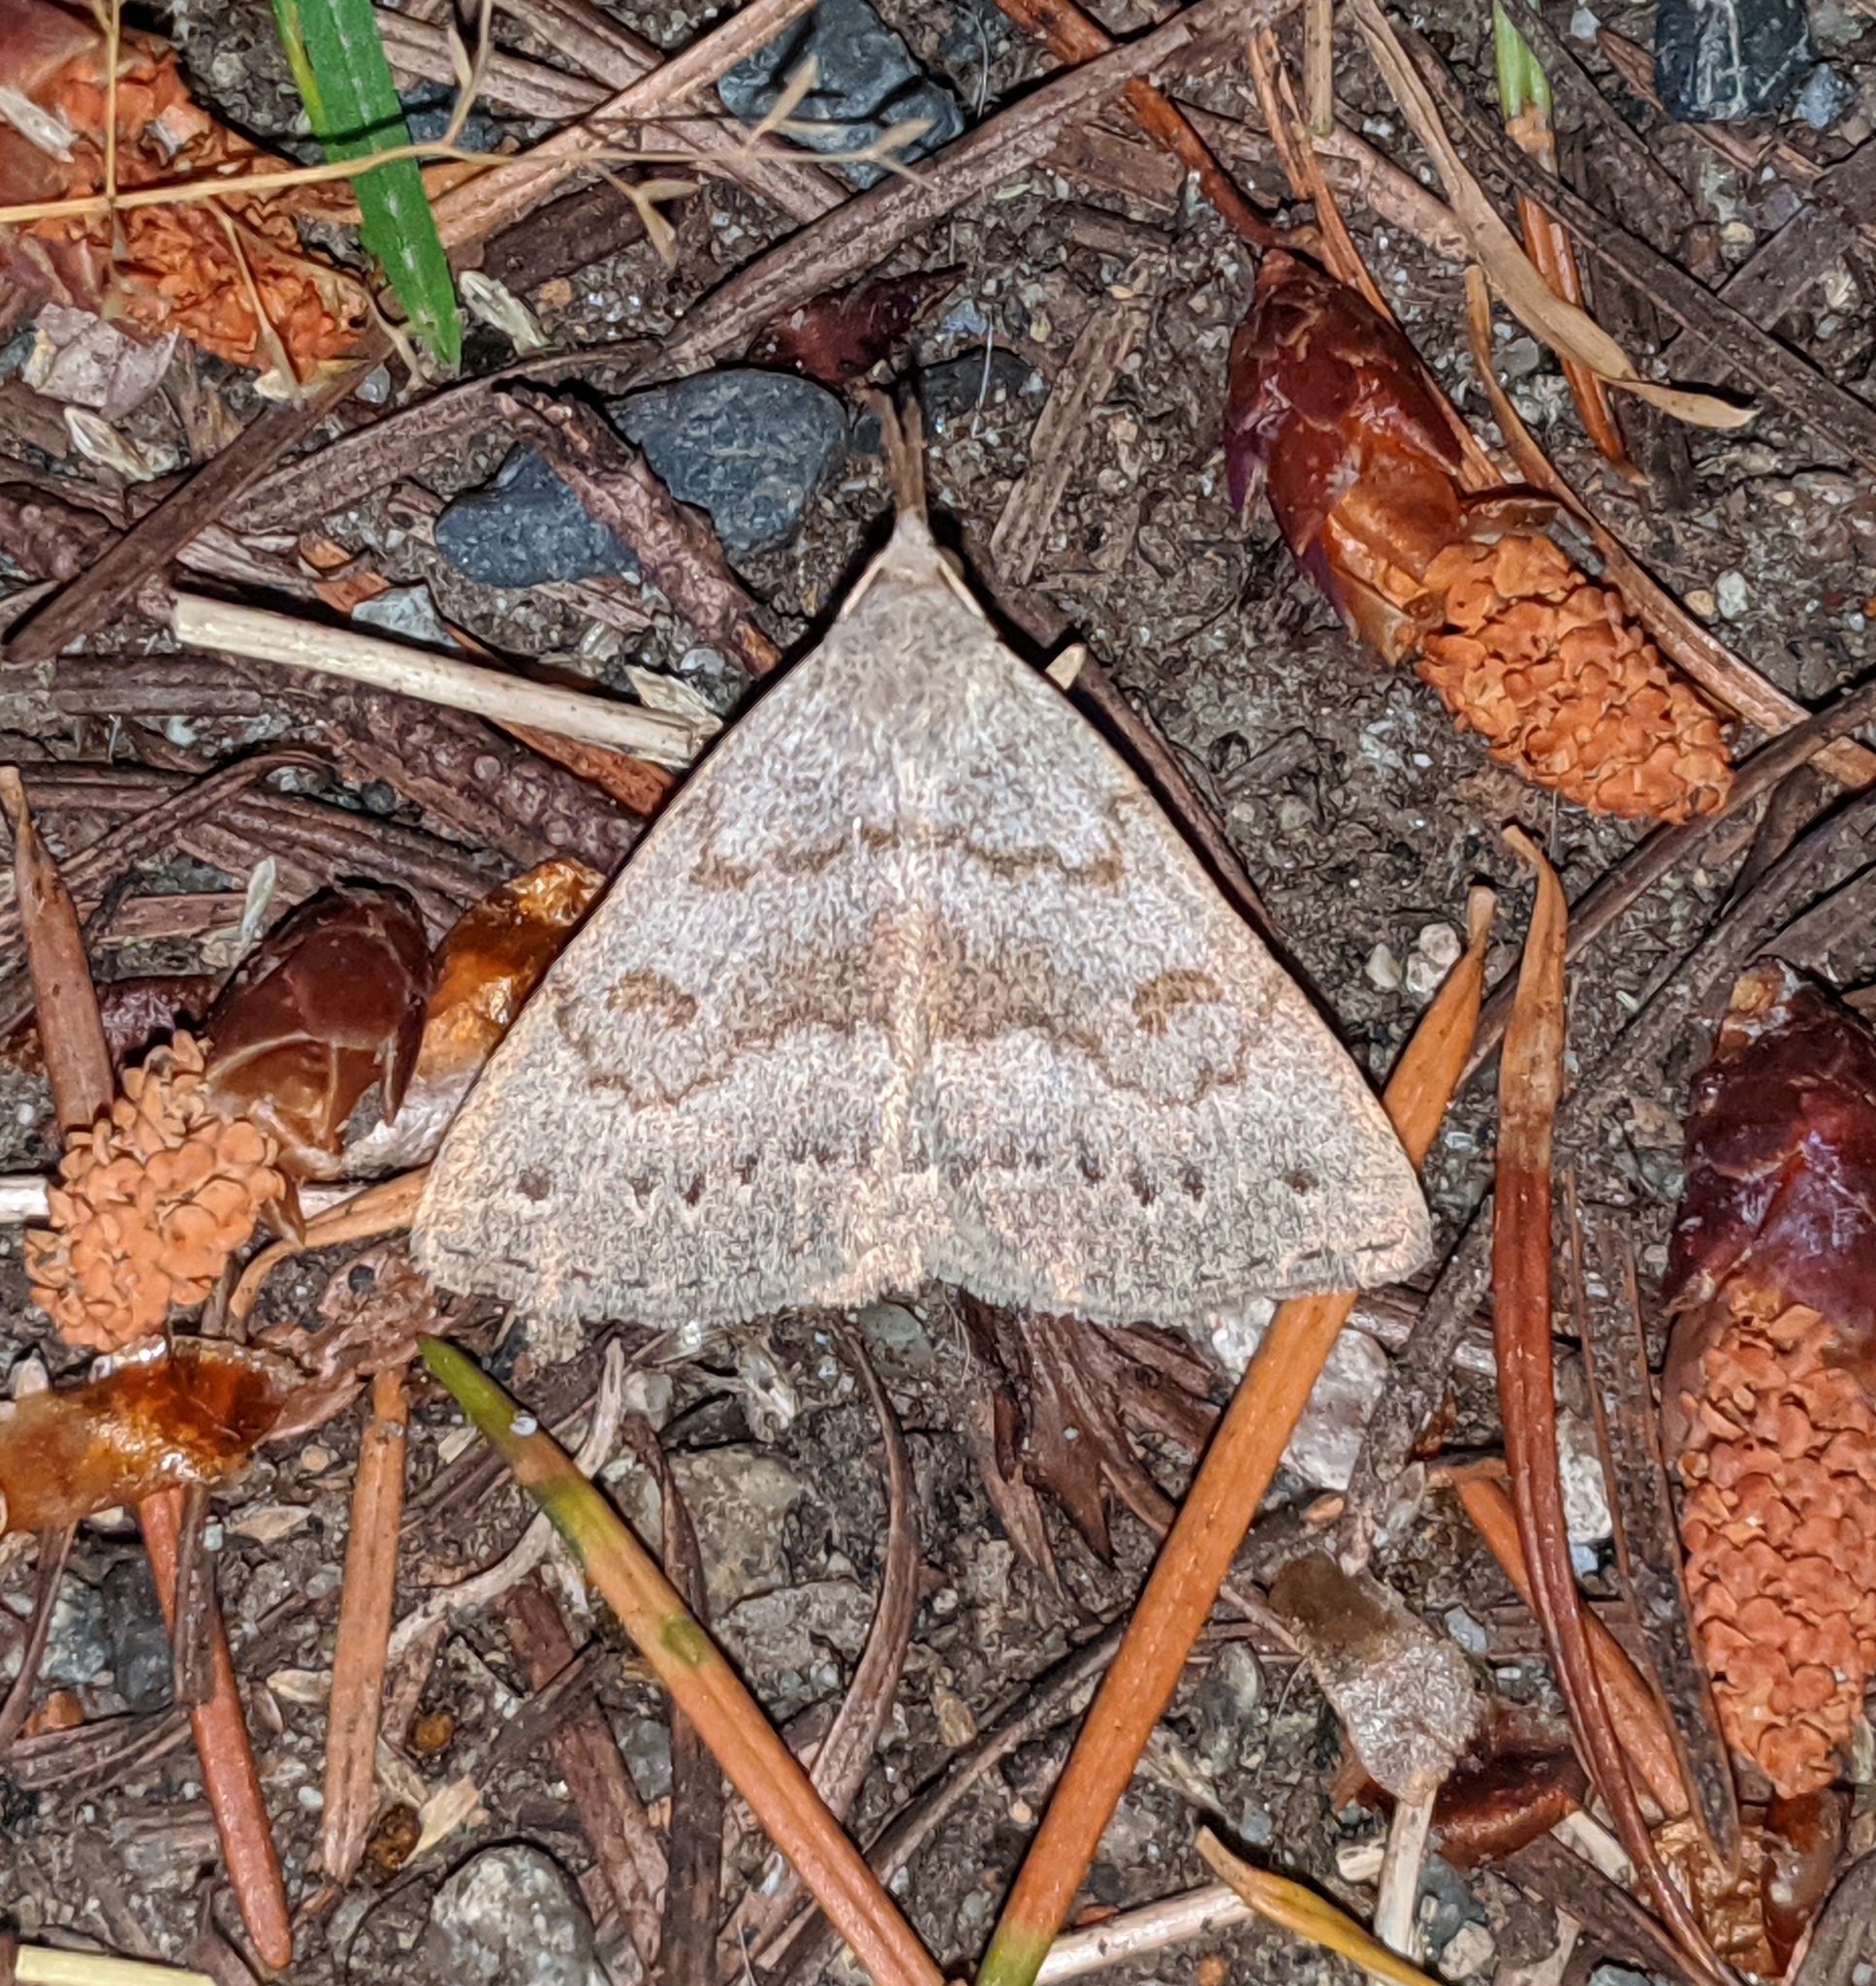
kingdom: Animalia
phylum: Arthropoda
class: Insecta
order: Lepidoptera
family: Erebidae
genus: Macrochilo
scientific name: Macrochilo morbidalis
